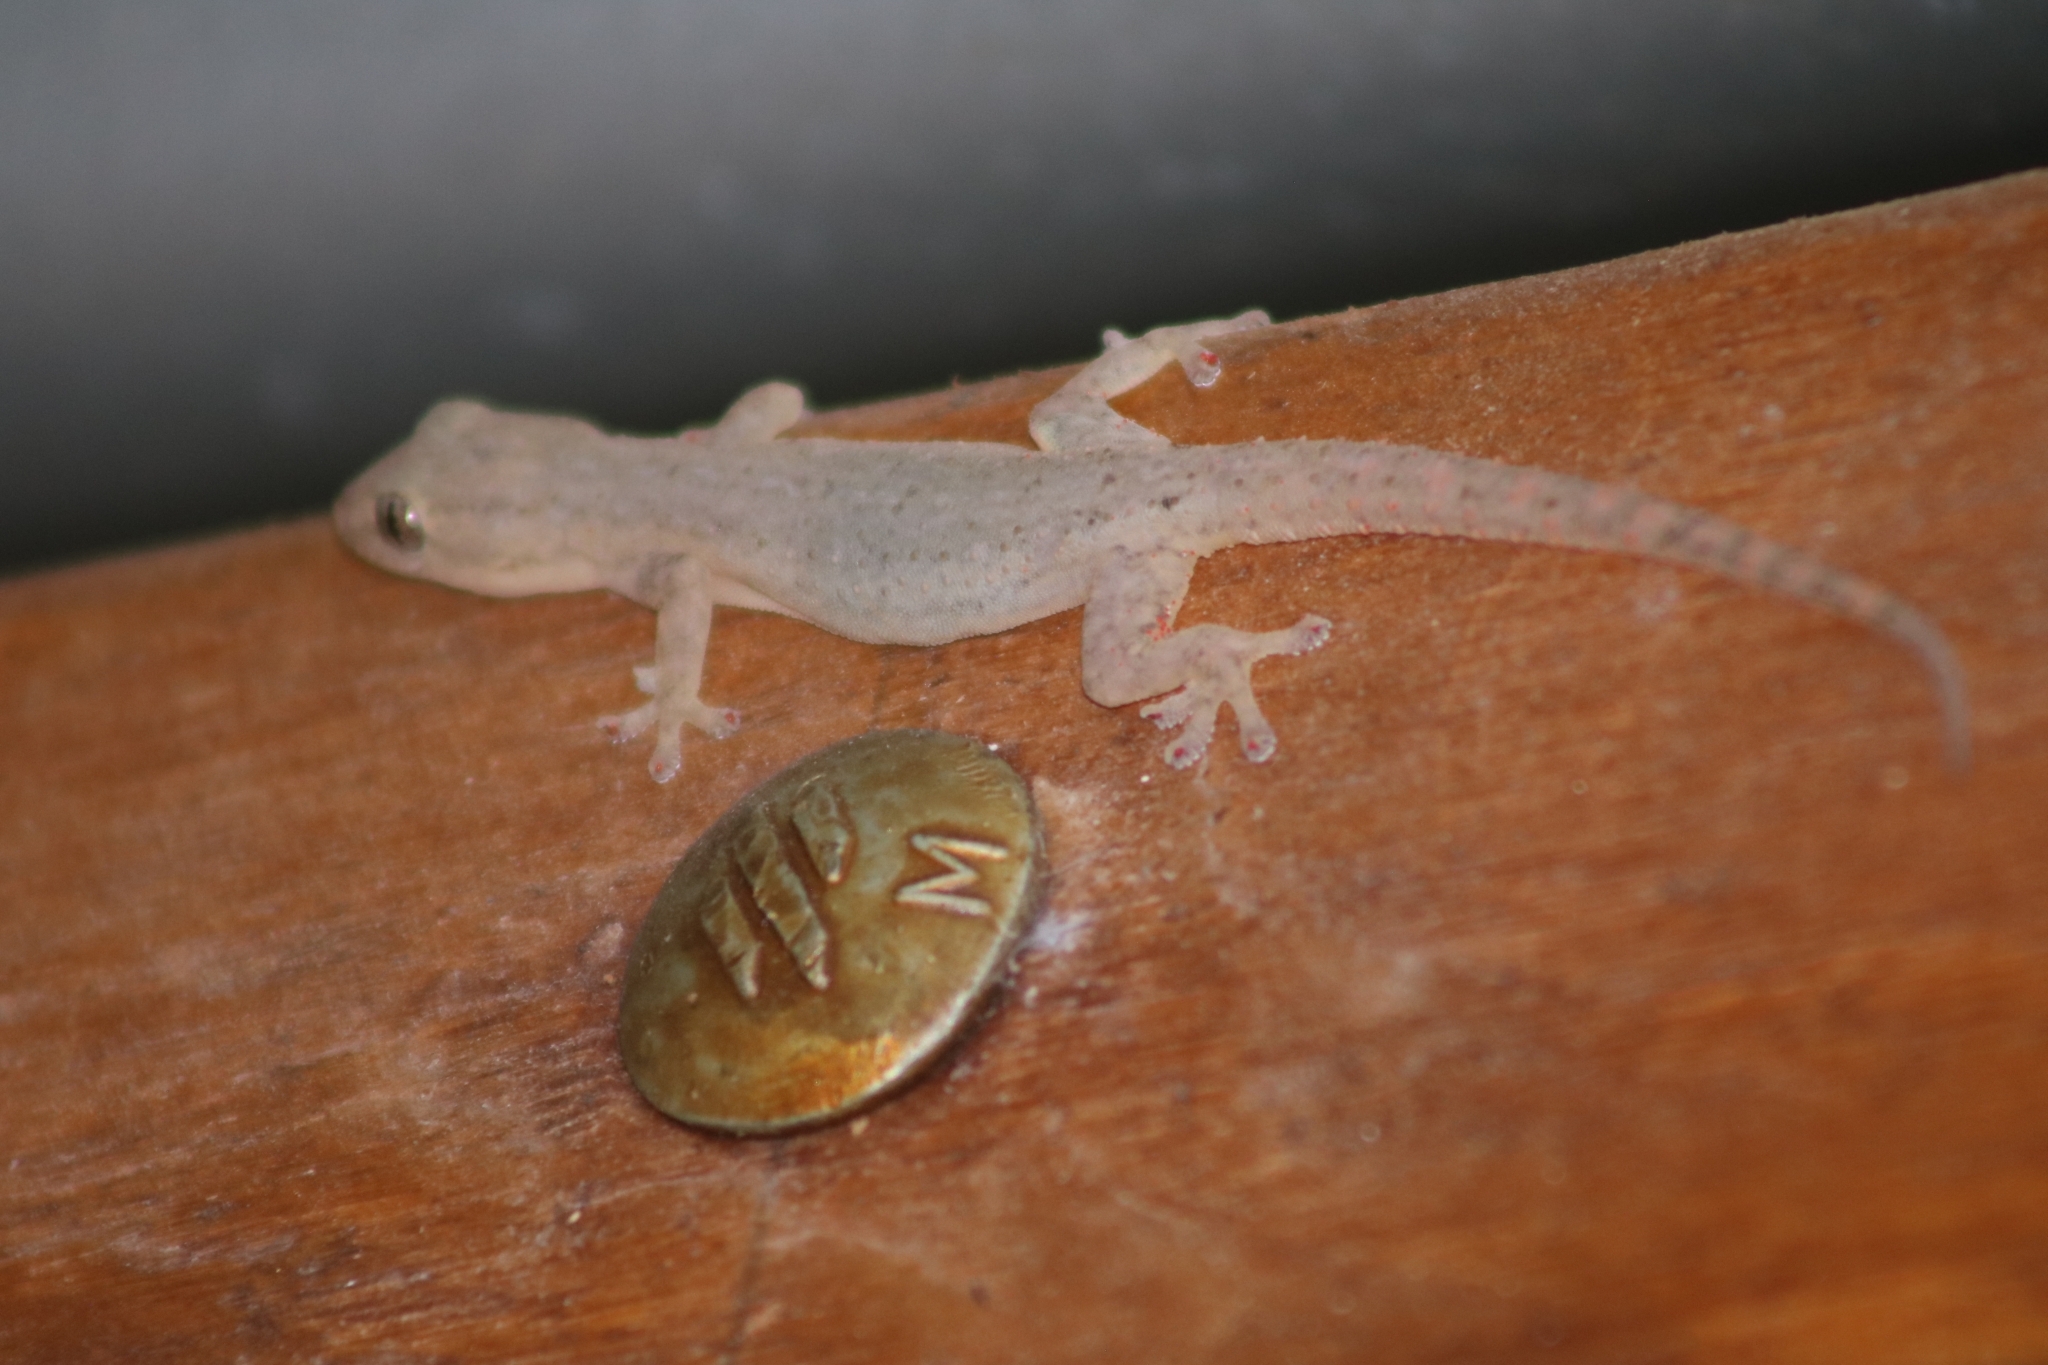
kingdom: Animalia
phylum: Chordata
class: Squamata
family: Gekkonidae
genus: Hemidactylus
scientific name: Hemidactylus frenatus
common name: Common house gecko
